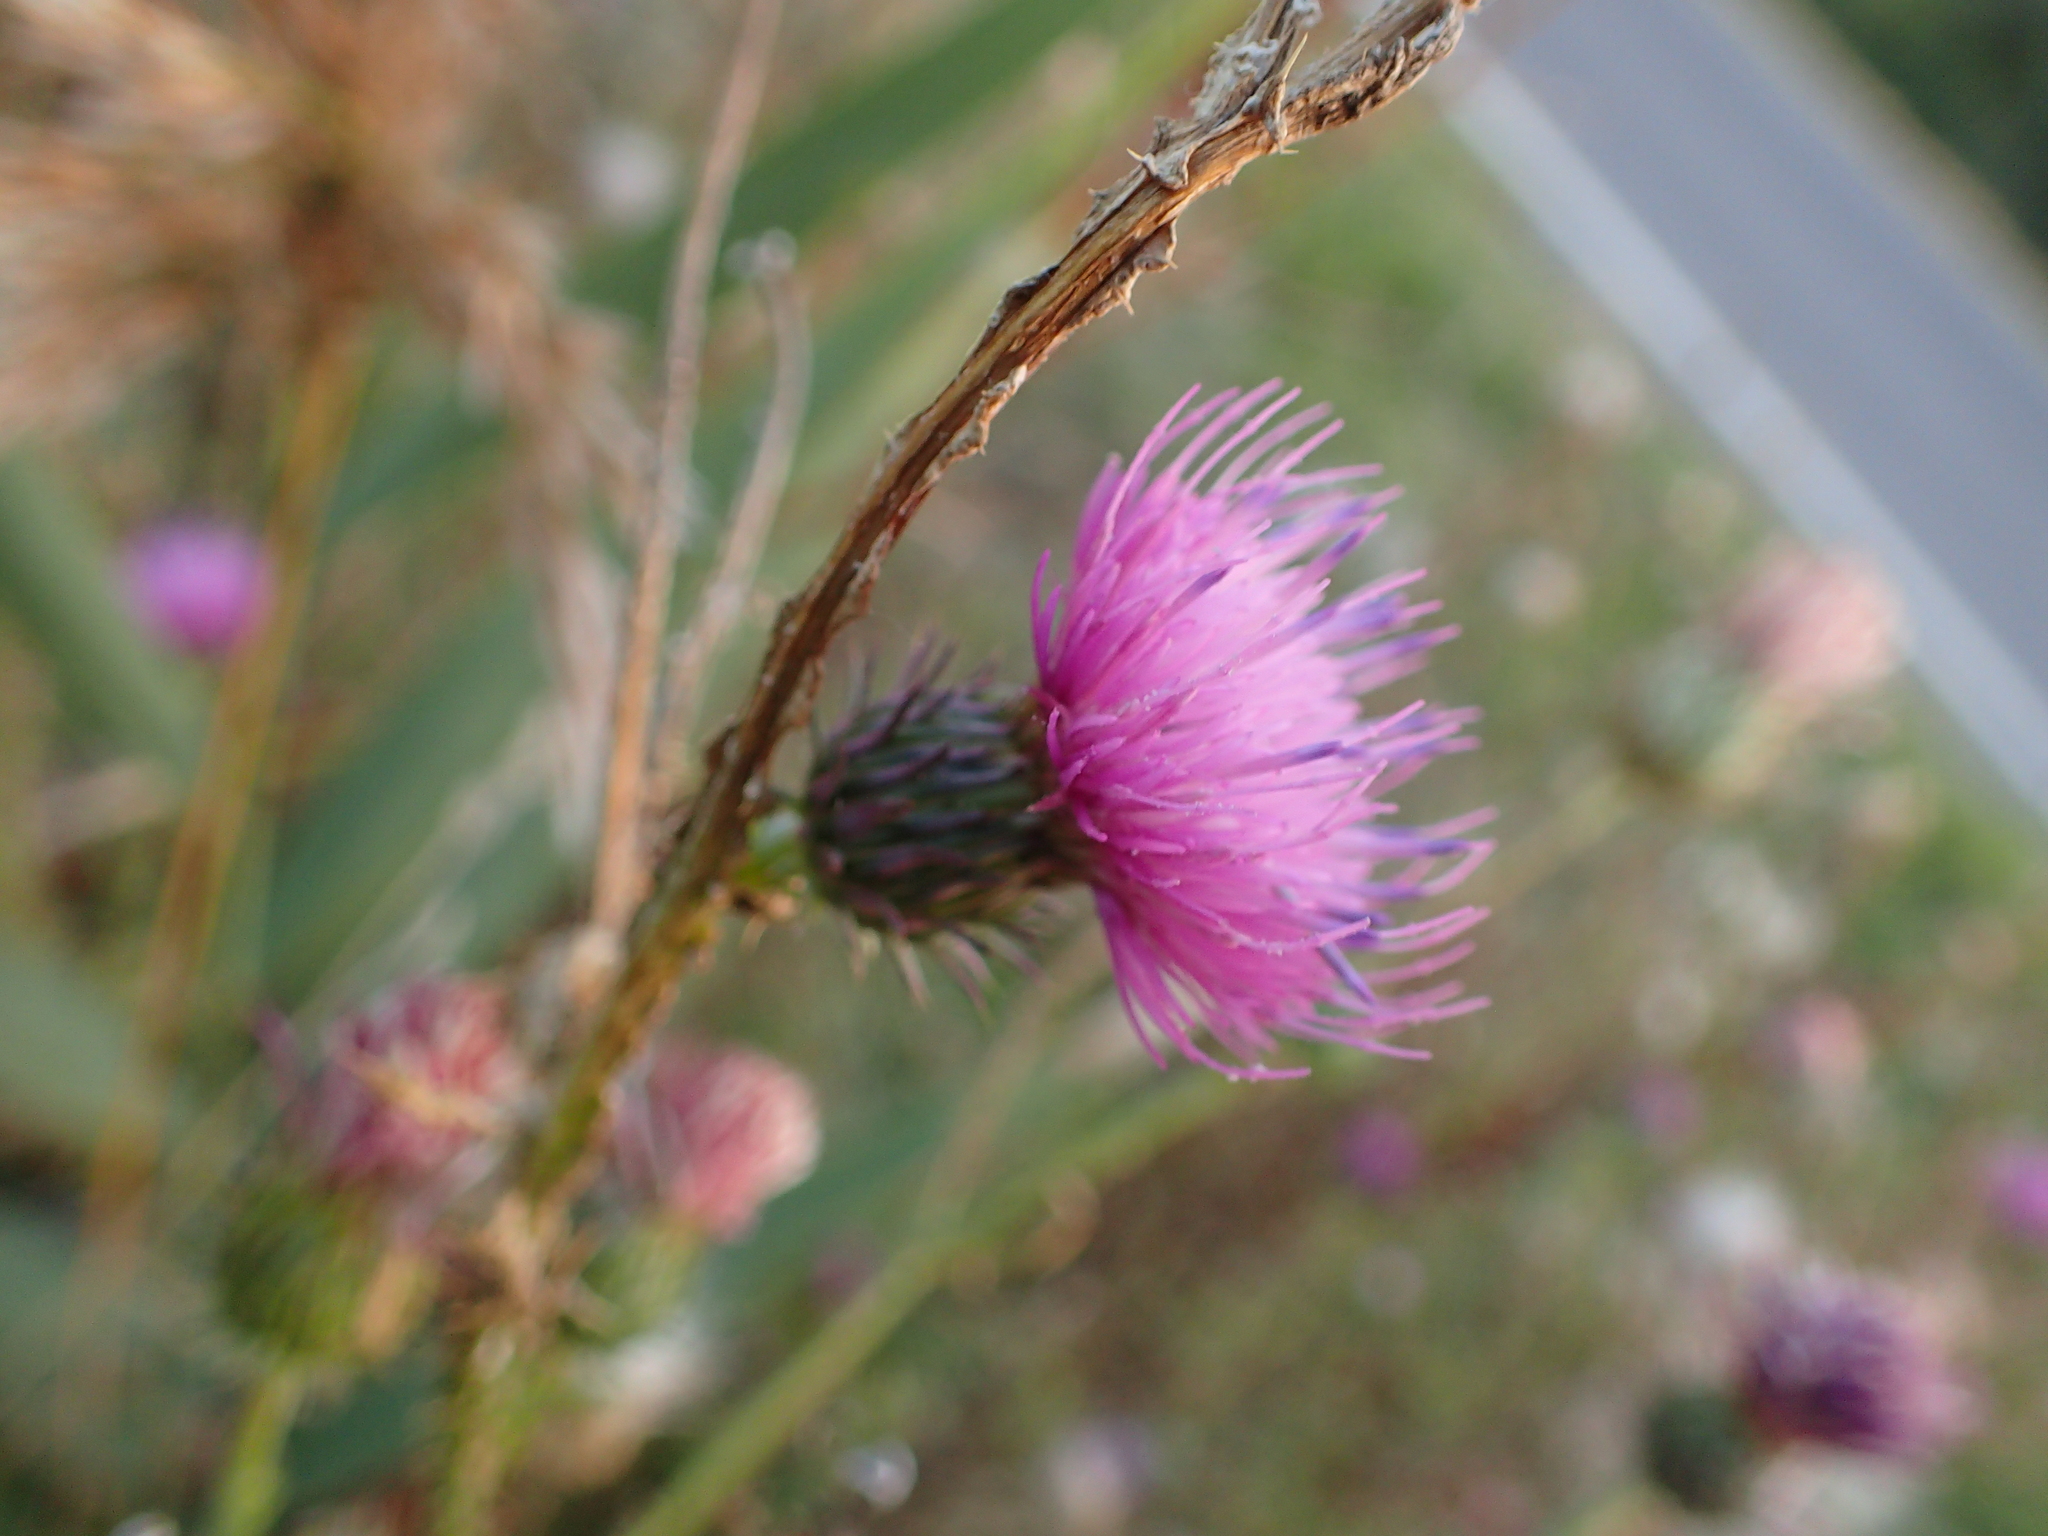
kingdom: Plantae
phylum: Tracheophyta
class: Magnoliopsida
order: Asterales
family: Asteraceae
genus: Carduus
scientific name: Carduus acanthoides
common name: Plumeless thistle
